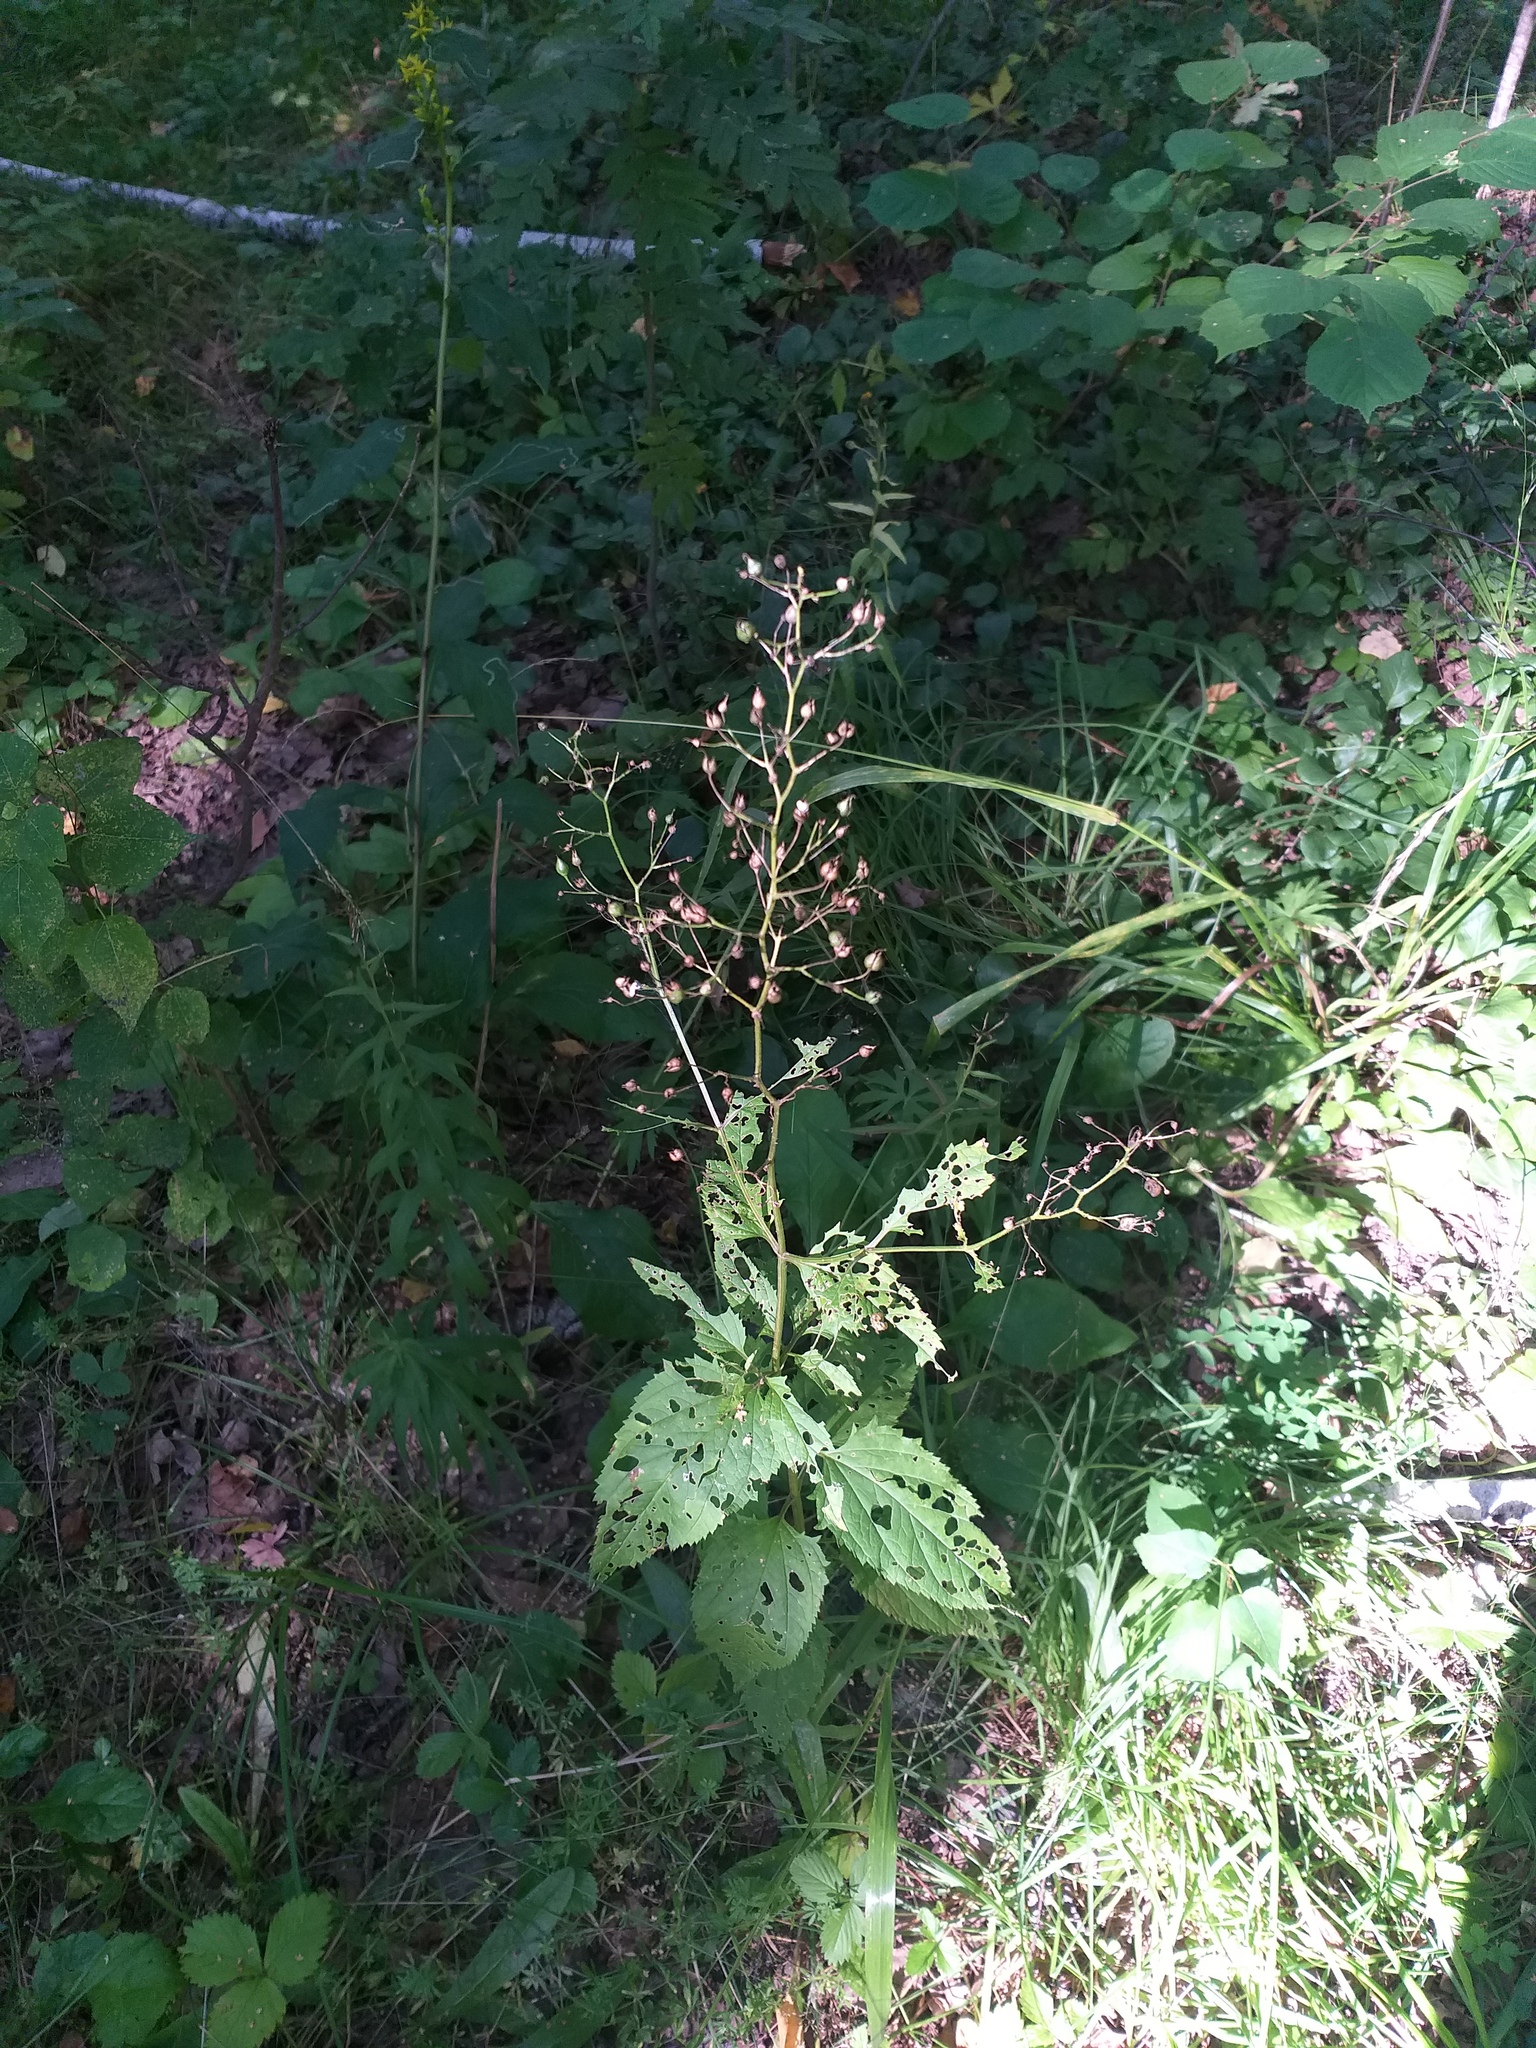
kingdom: Plantae
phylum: Tracheophyta
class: Magnoliopsida
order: Lamiales
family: Scrophulariaceae
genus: Scrophularia
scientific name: Scrophularia nodosa
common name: Common figwort
